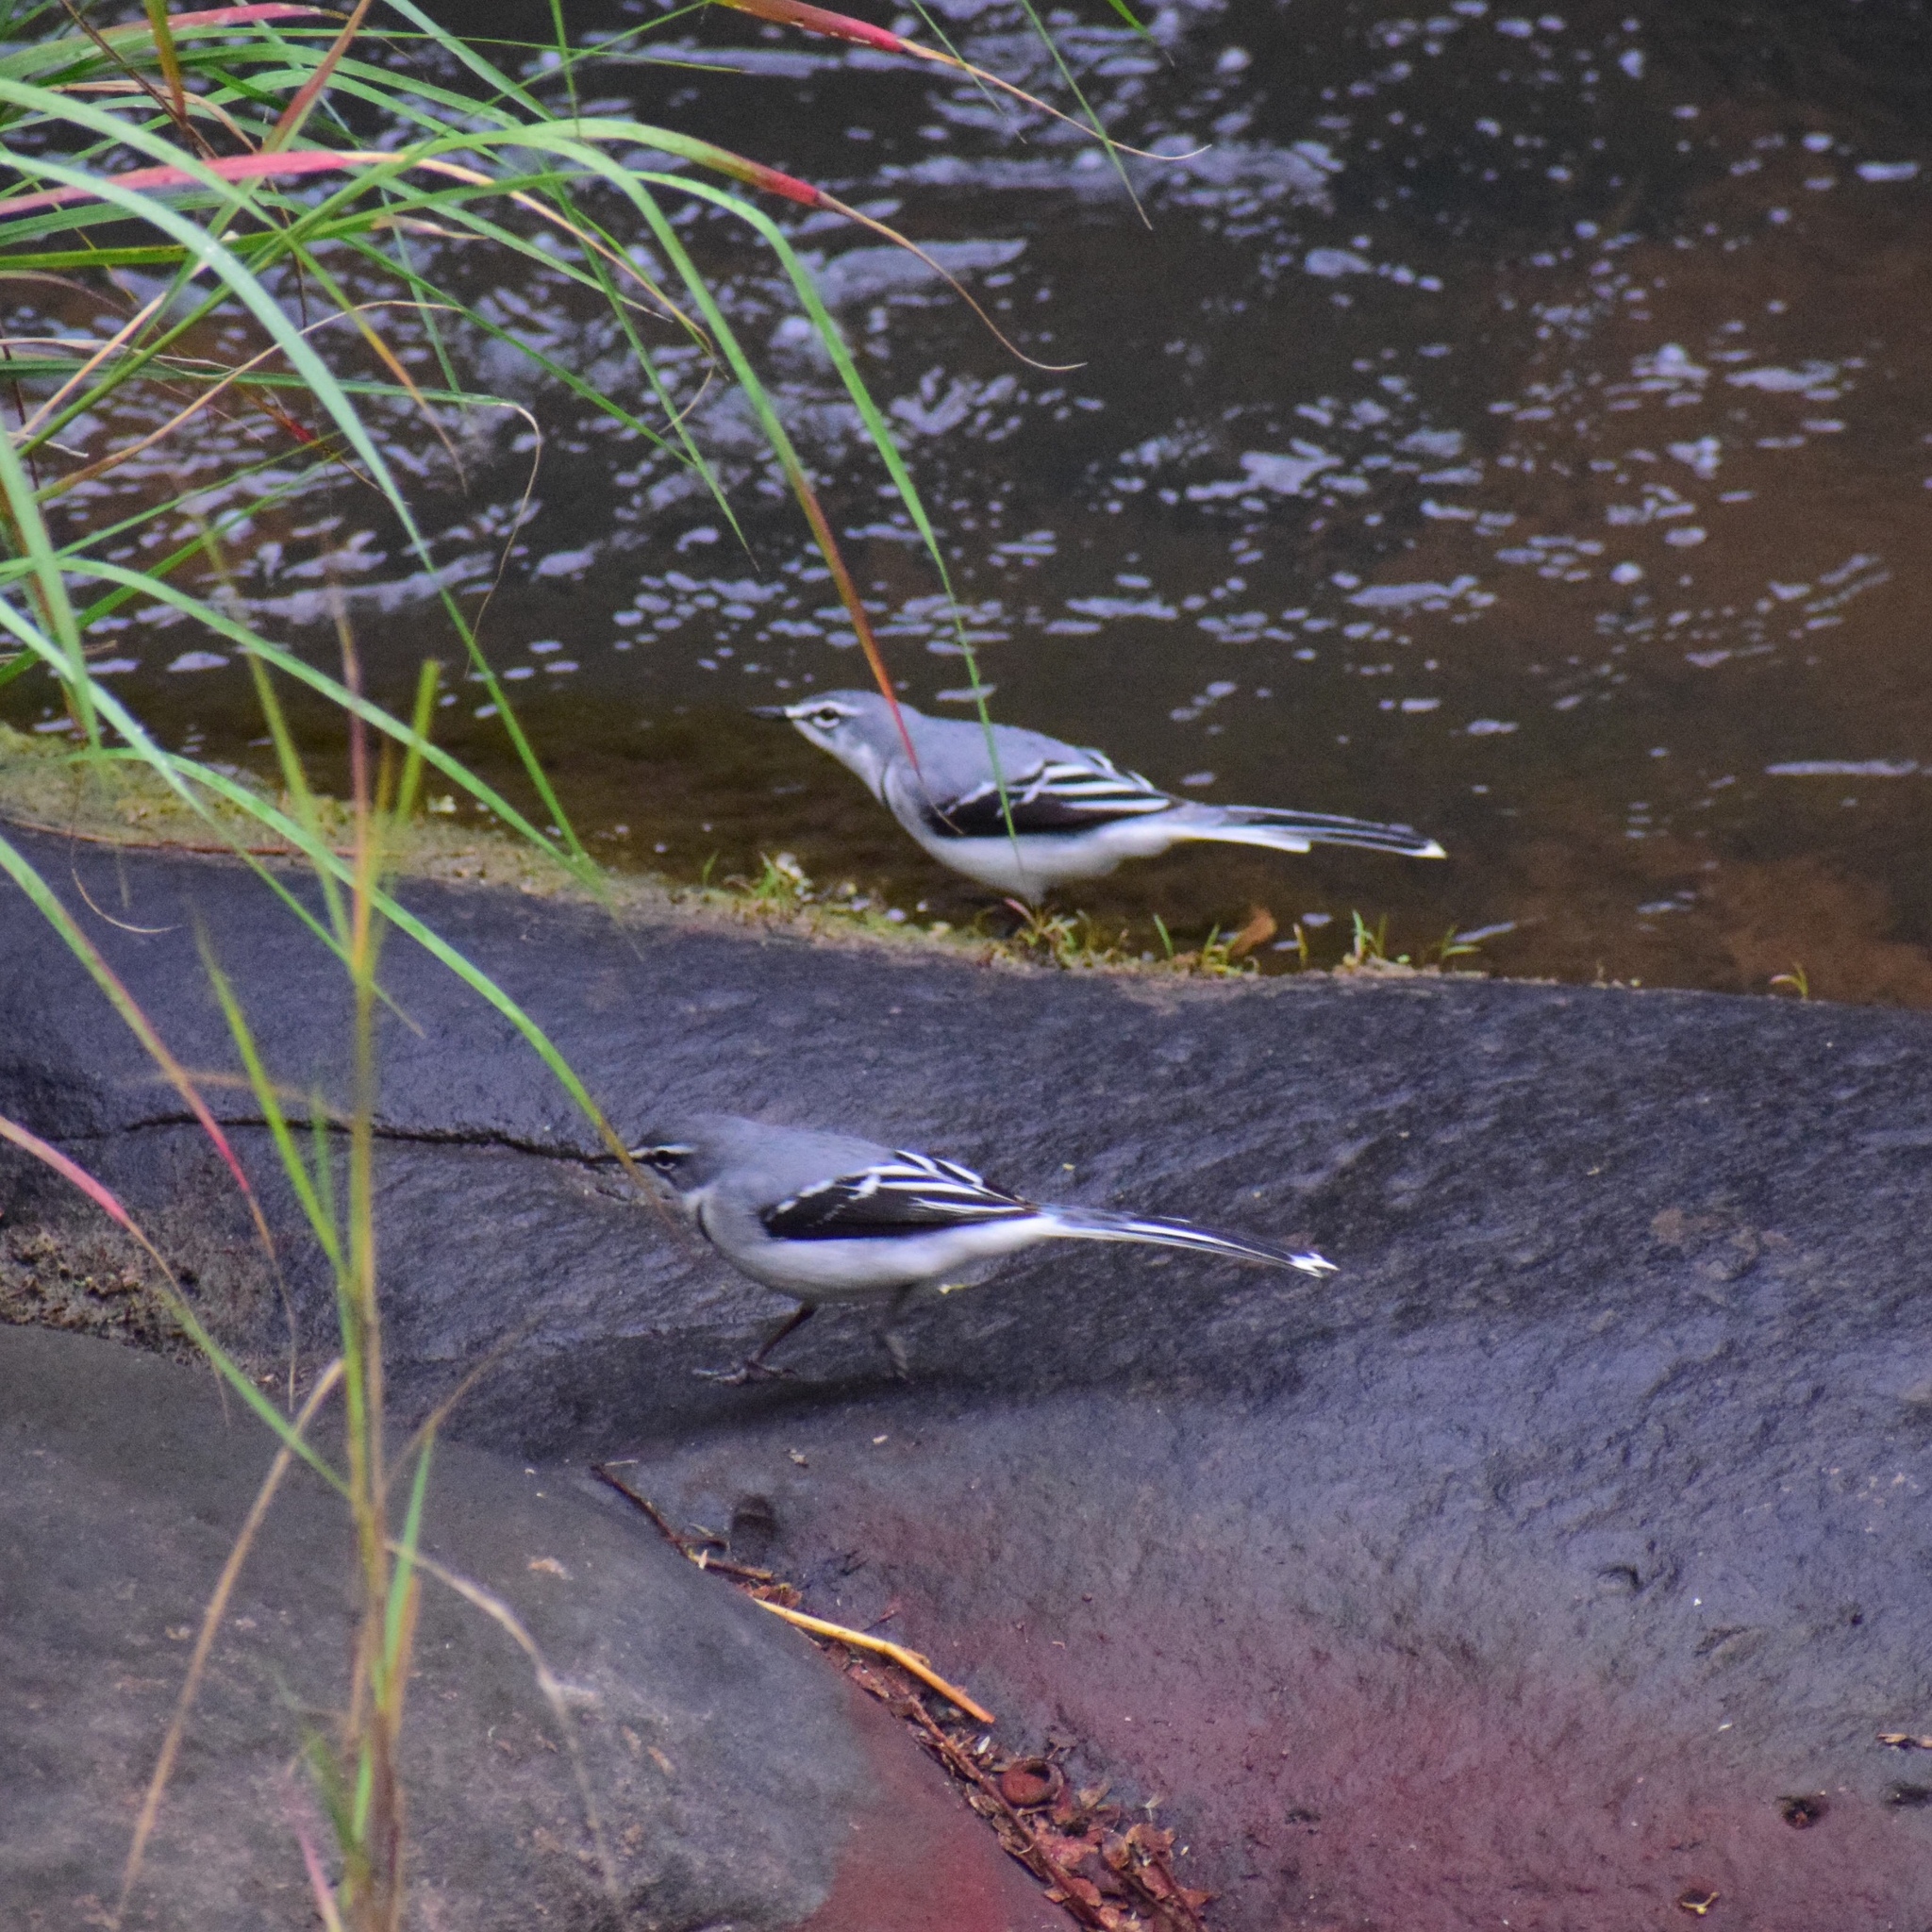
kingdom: Animalia
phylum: Chordata
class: Aves
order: Passeriformes
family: Motacillidae
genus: Motacilla
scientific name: Motacilla clara
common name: Mountain wagtail
